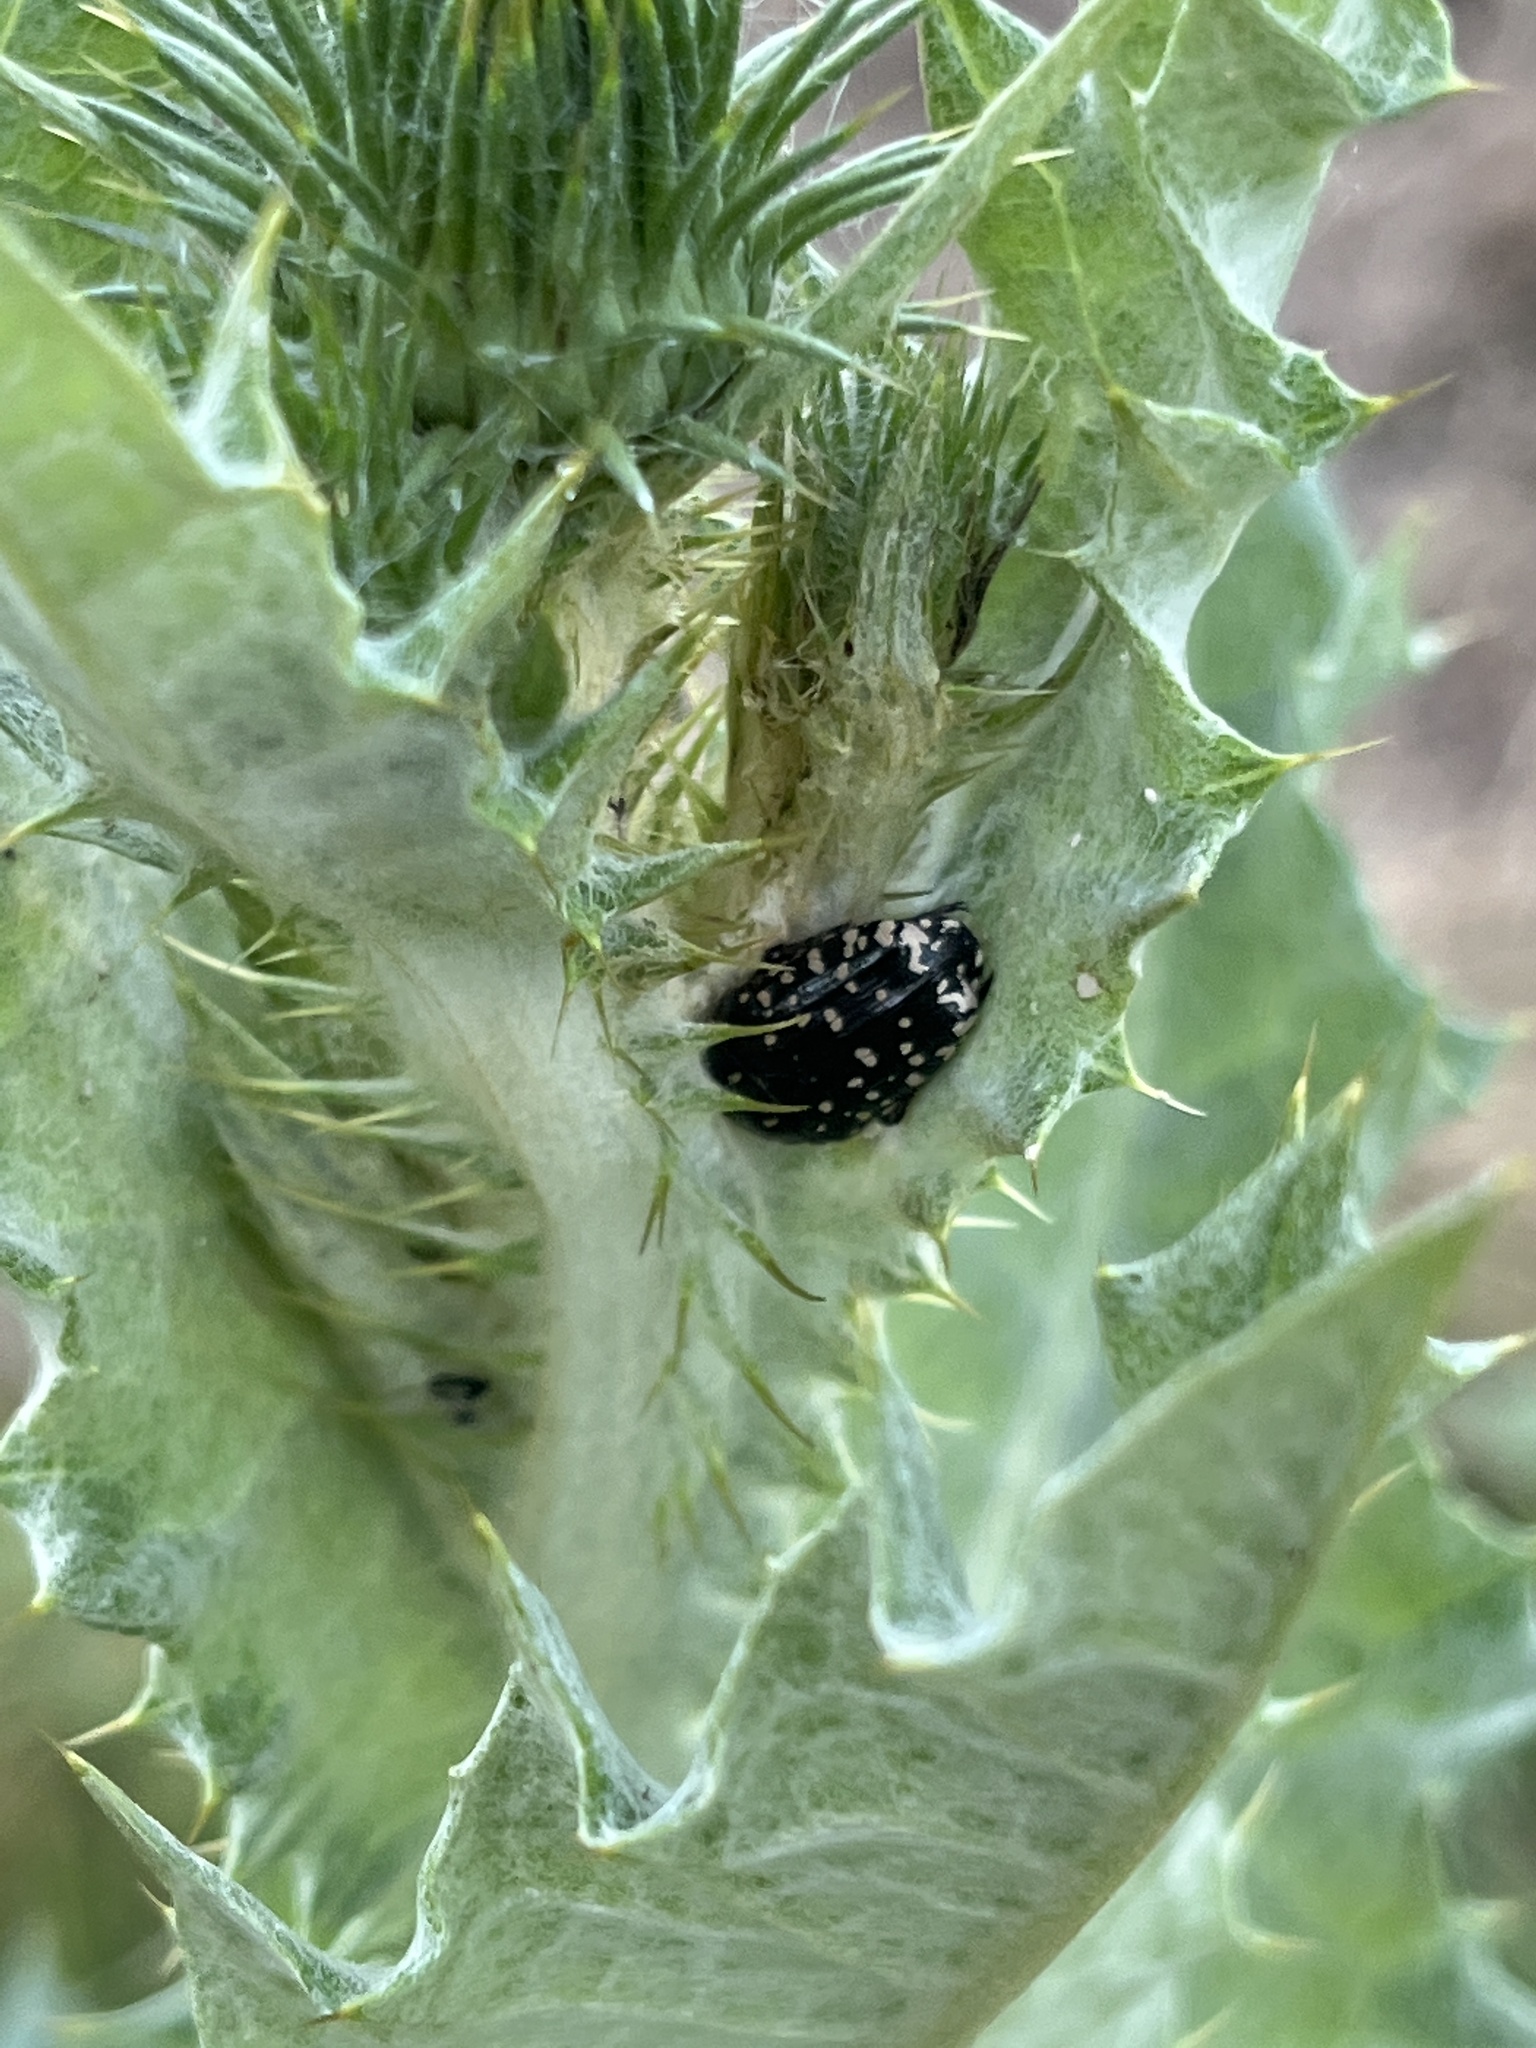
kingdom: Animalia
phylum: Arthropoda
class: Insecta
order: Coleoptera
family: Scarabaeidae
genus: Oxythyrea
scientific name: Oxythyrea funesta
